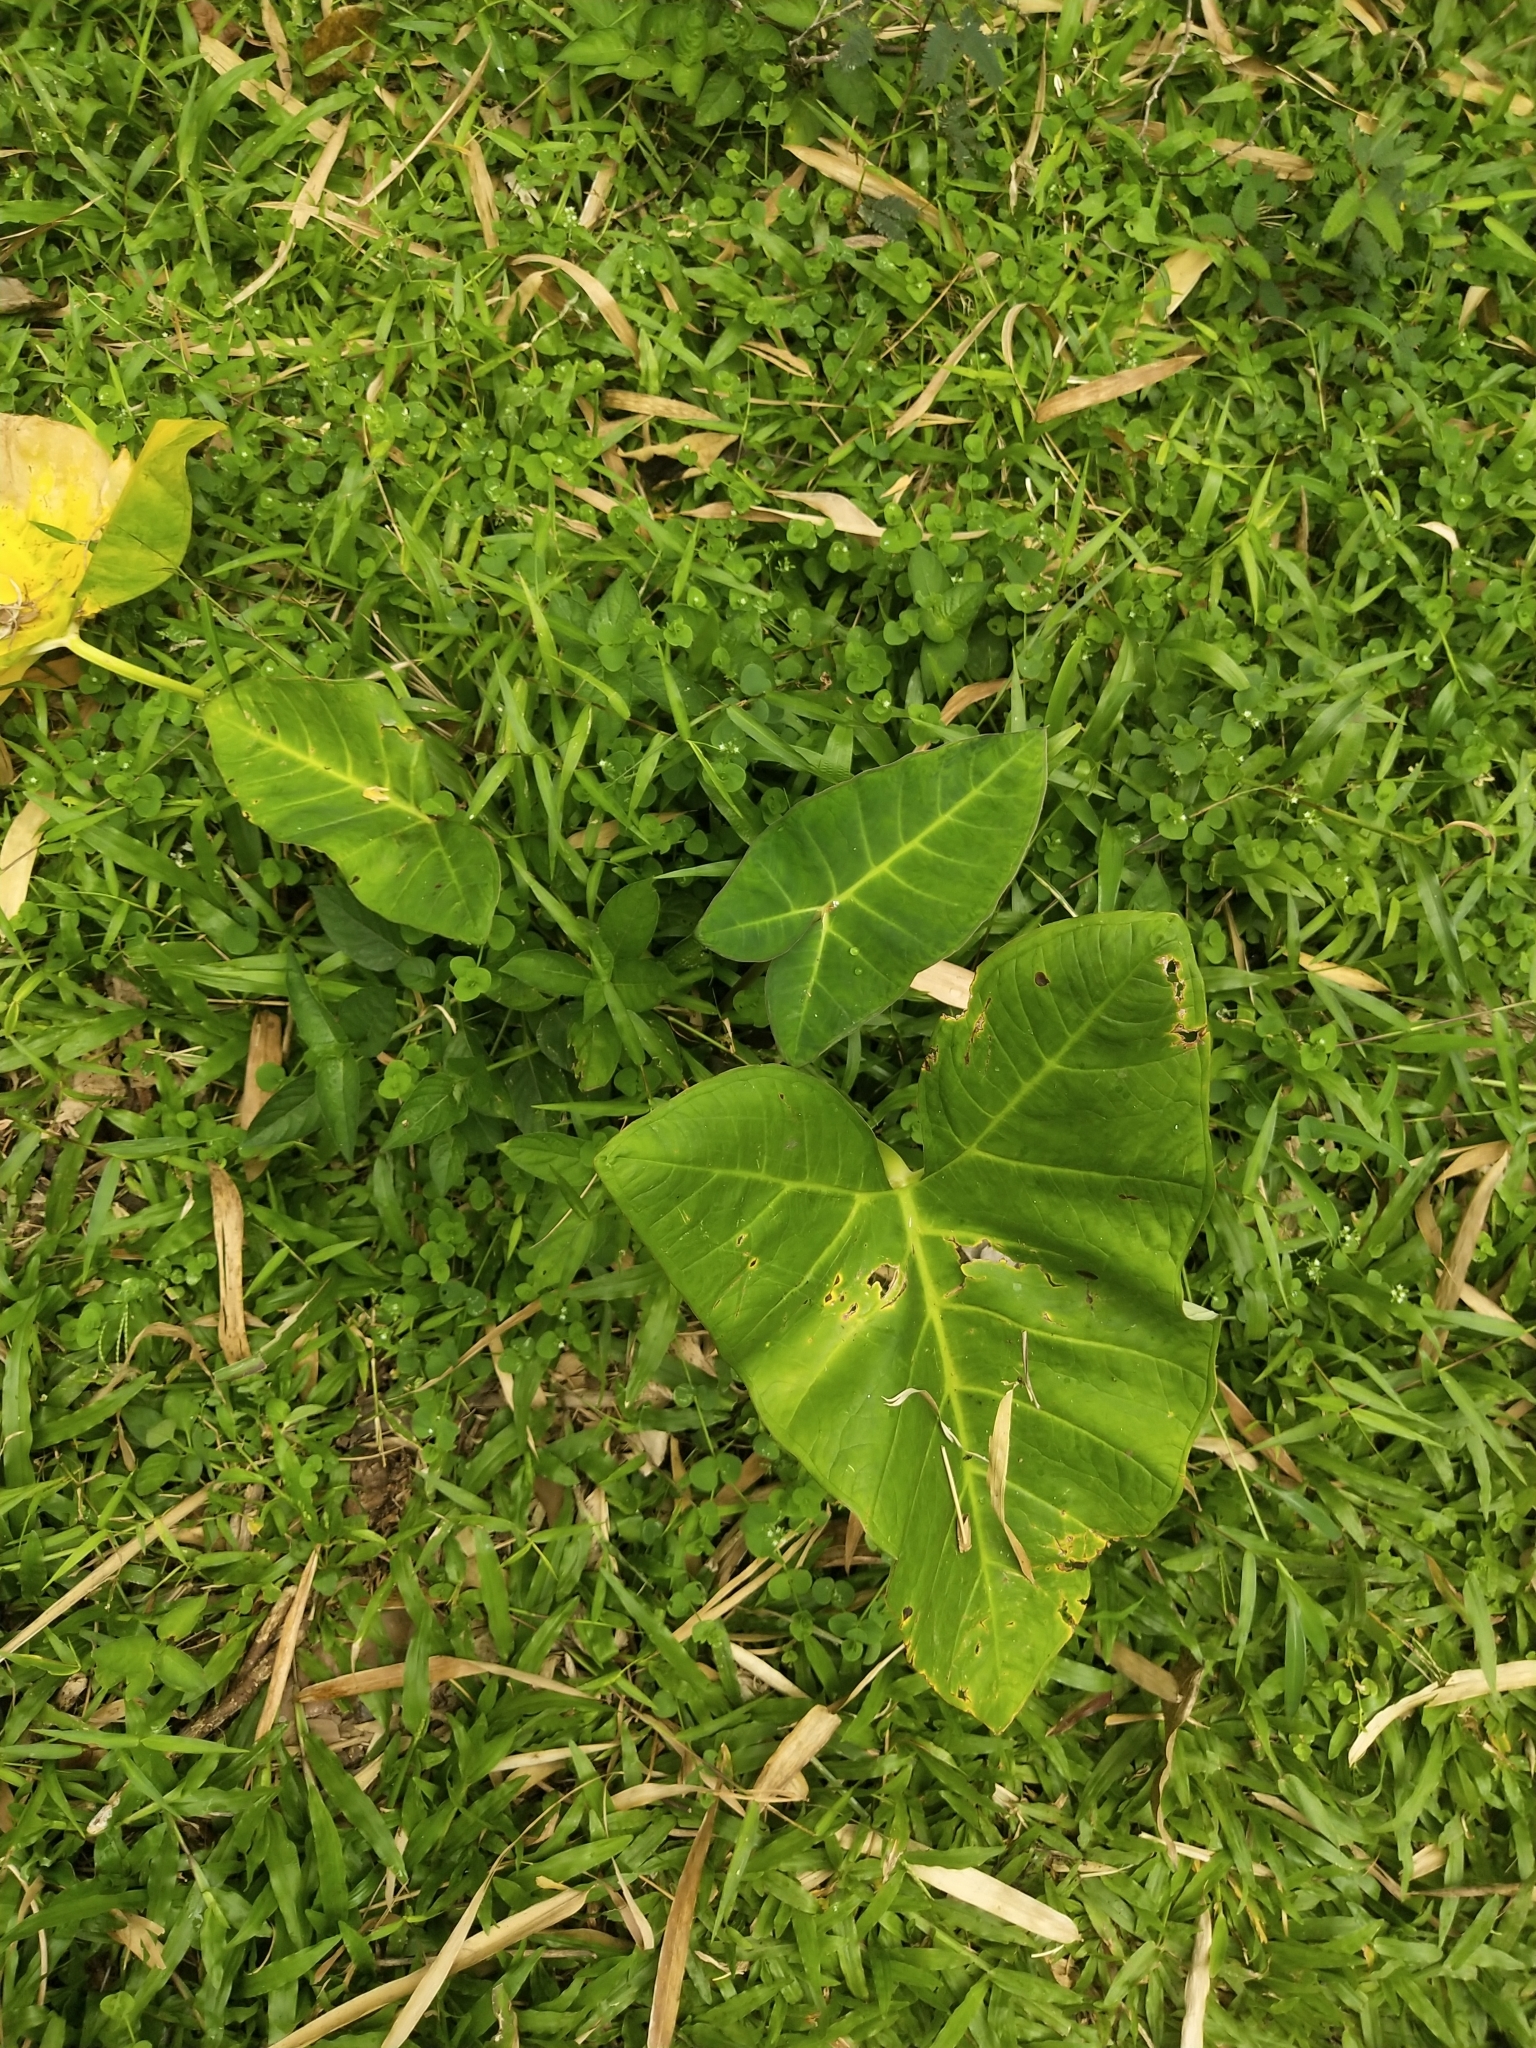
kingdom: Plantae
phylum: Tracheophyta
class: Liliopsida
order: Alismatales
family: Araceae
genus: Xanthosoma
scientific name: Xanthosoma sagittifolium
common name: Arrowleaf elephant's ear
